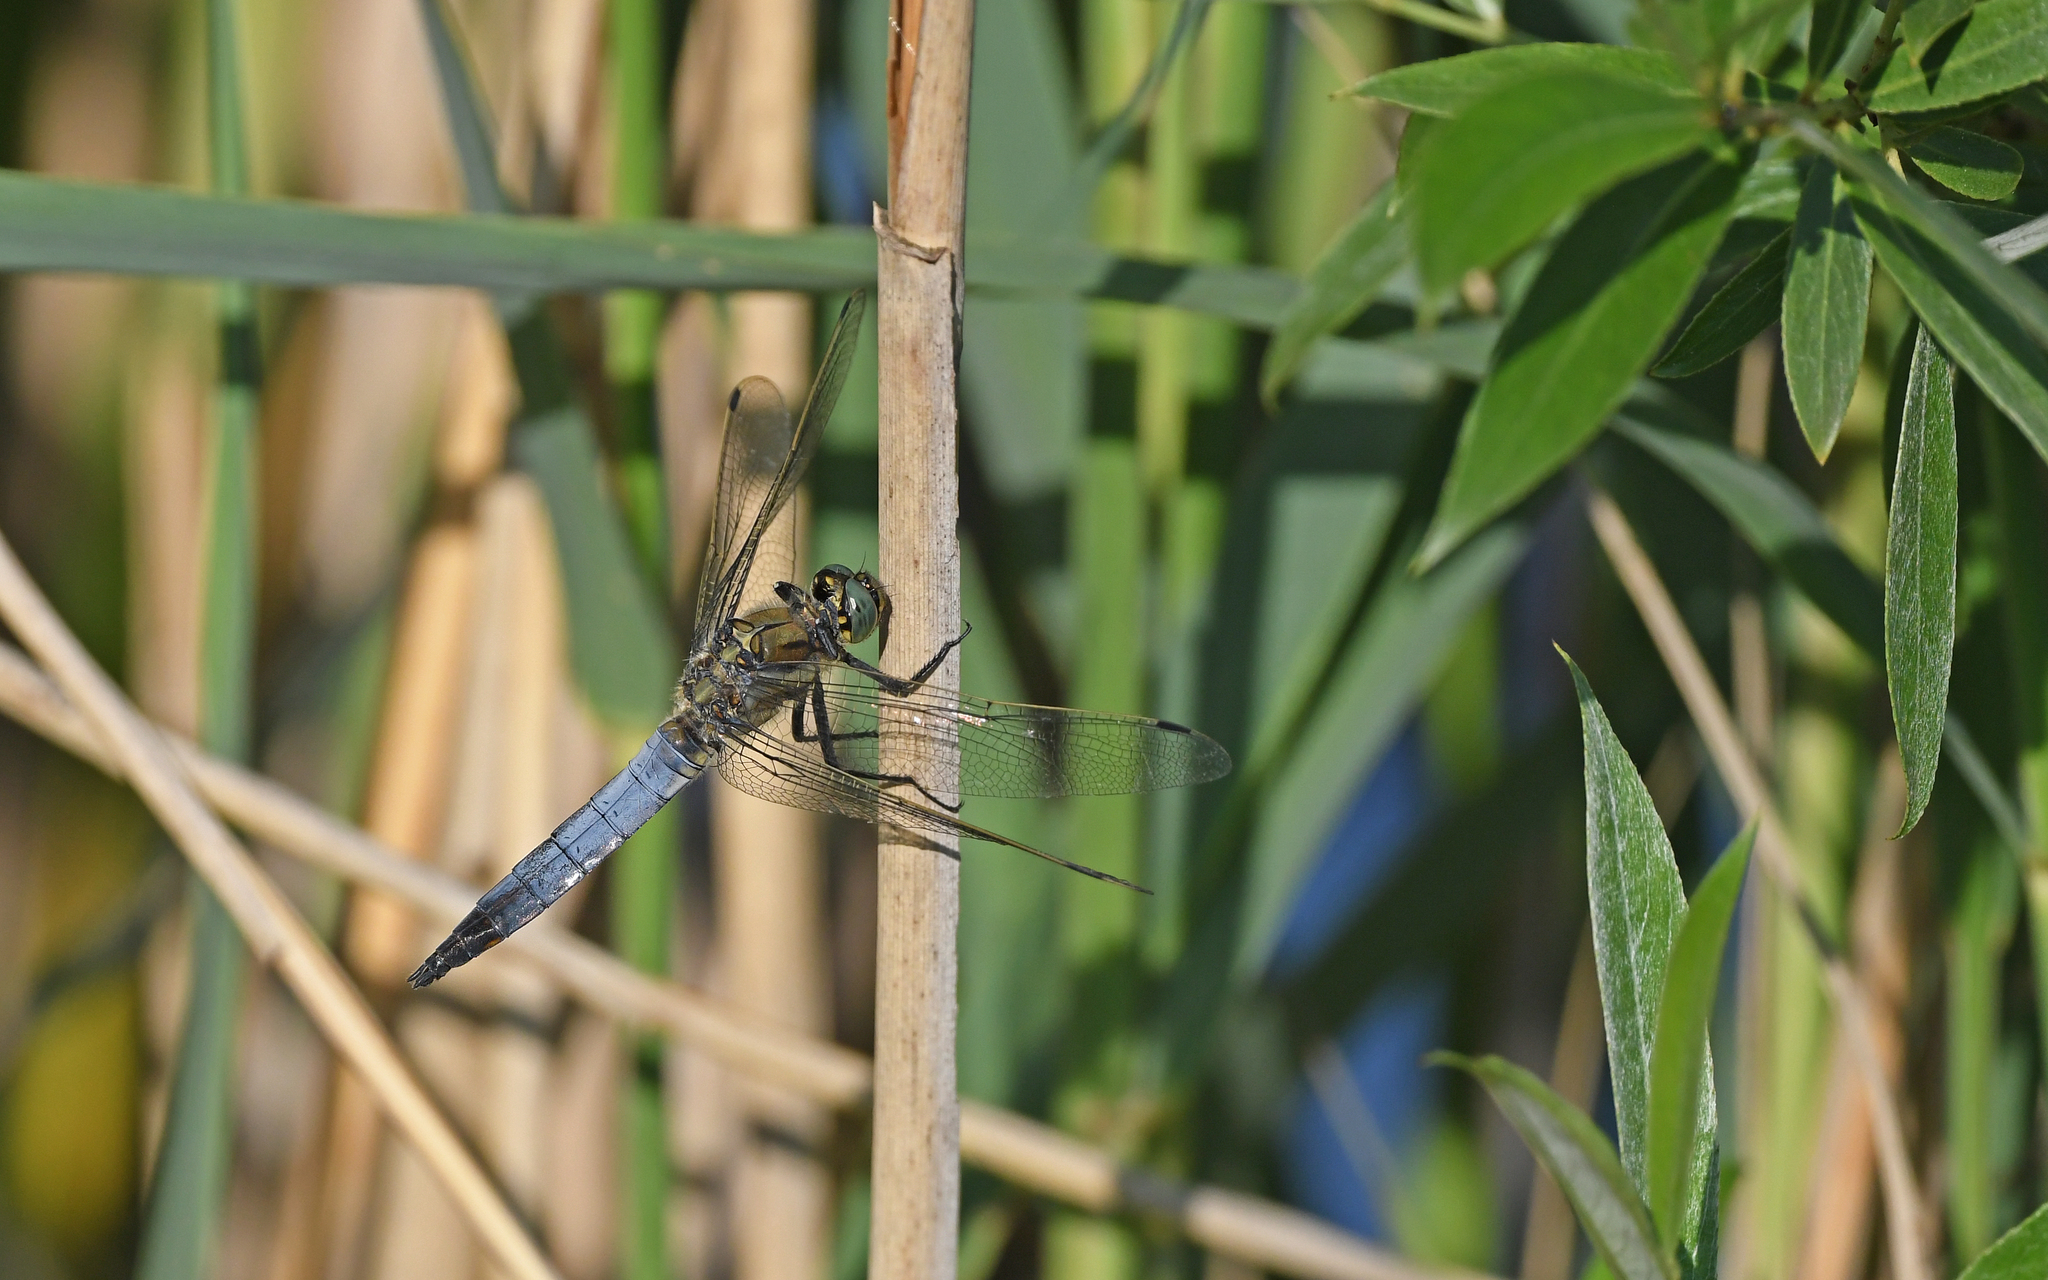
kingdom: Animalia
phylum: Arthropoda
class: Insecta
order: Odonata
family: Libellulidae
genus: Orthetrum
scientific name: Orthetrum cancellatum
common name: Black-tailed skimmer
